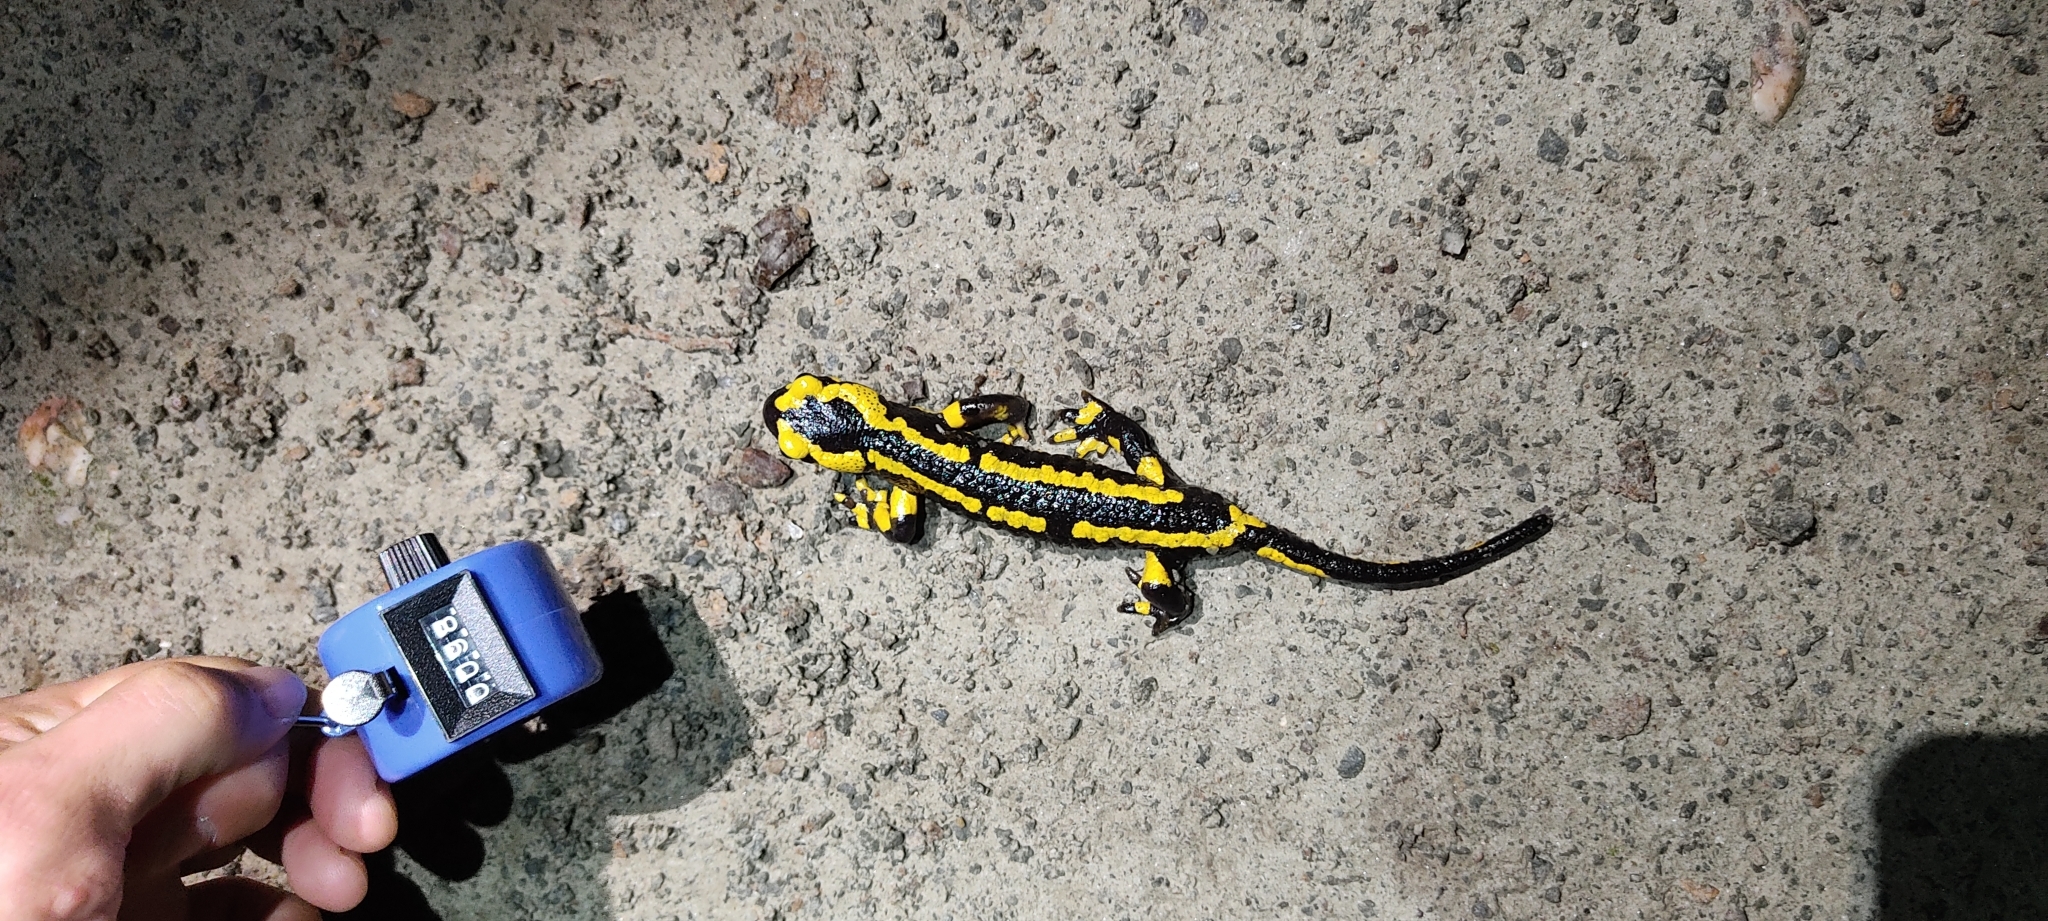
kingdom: Animalia
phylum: Chordata
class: Amphibia
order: Caudata
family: Salamandridae
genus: Salamandra
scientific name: Salamandra salamandra
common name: Fire salamander
